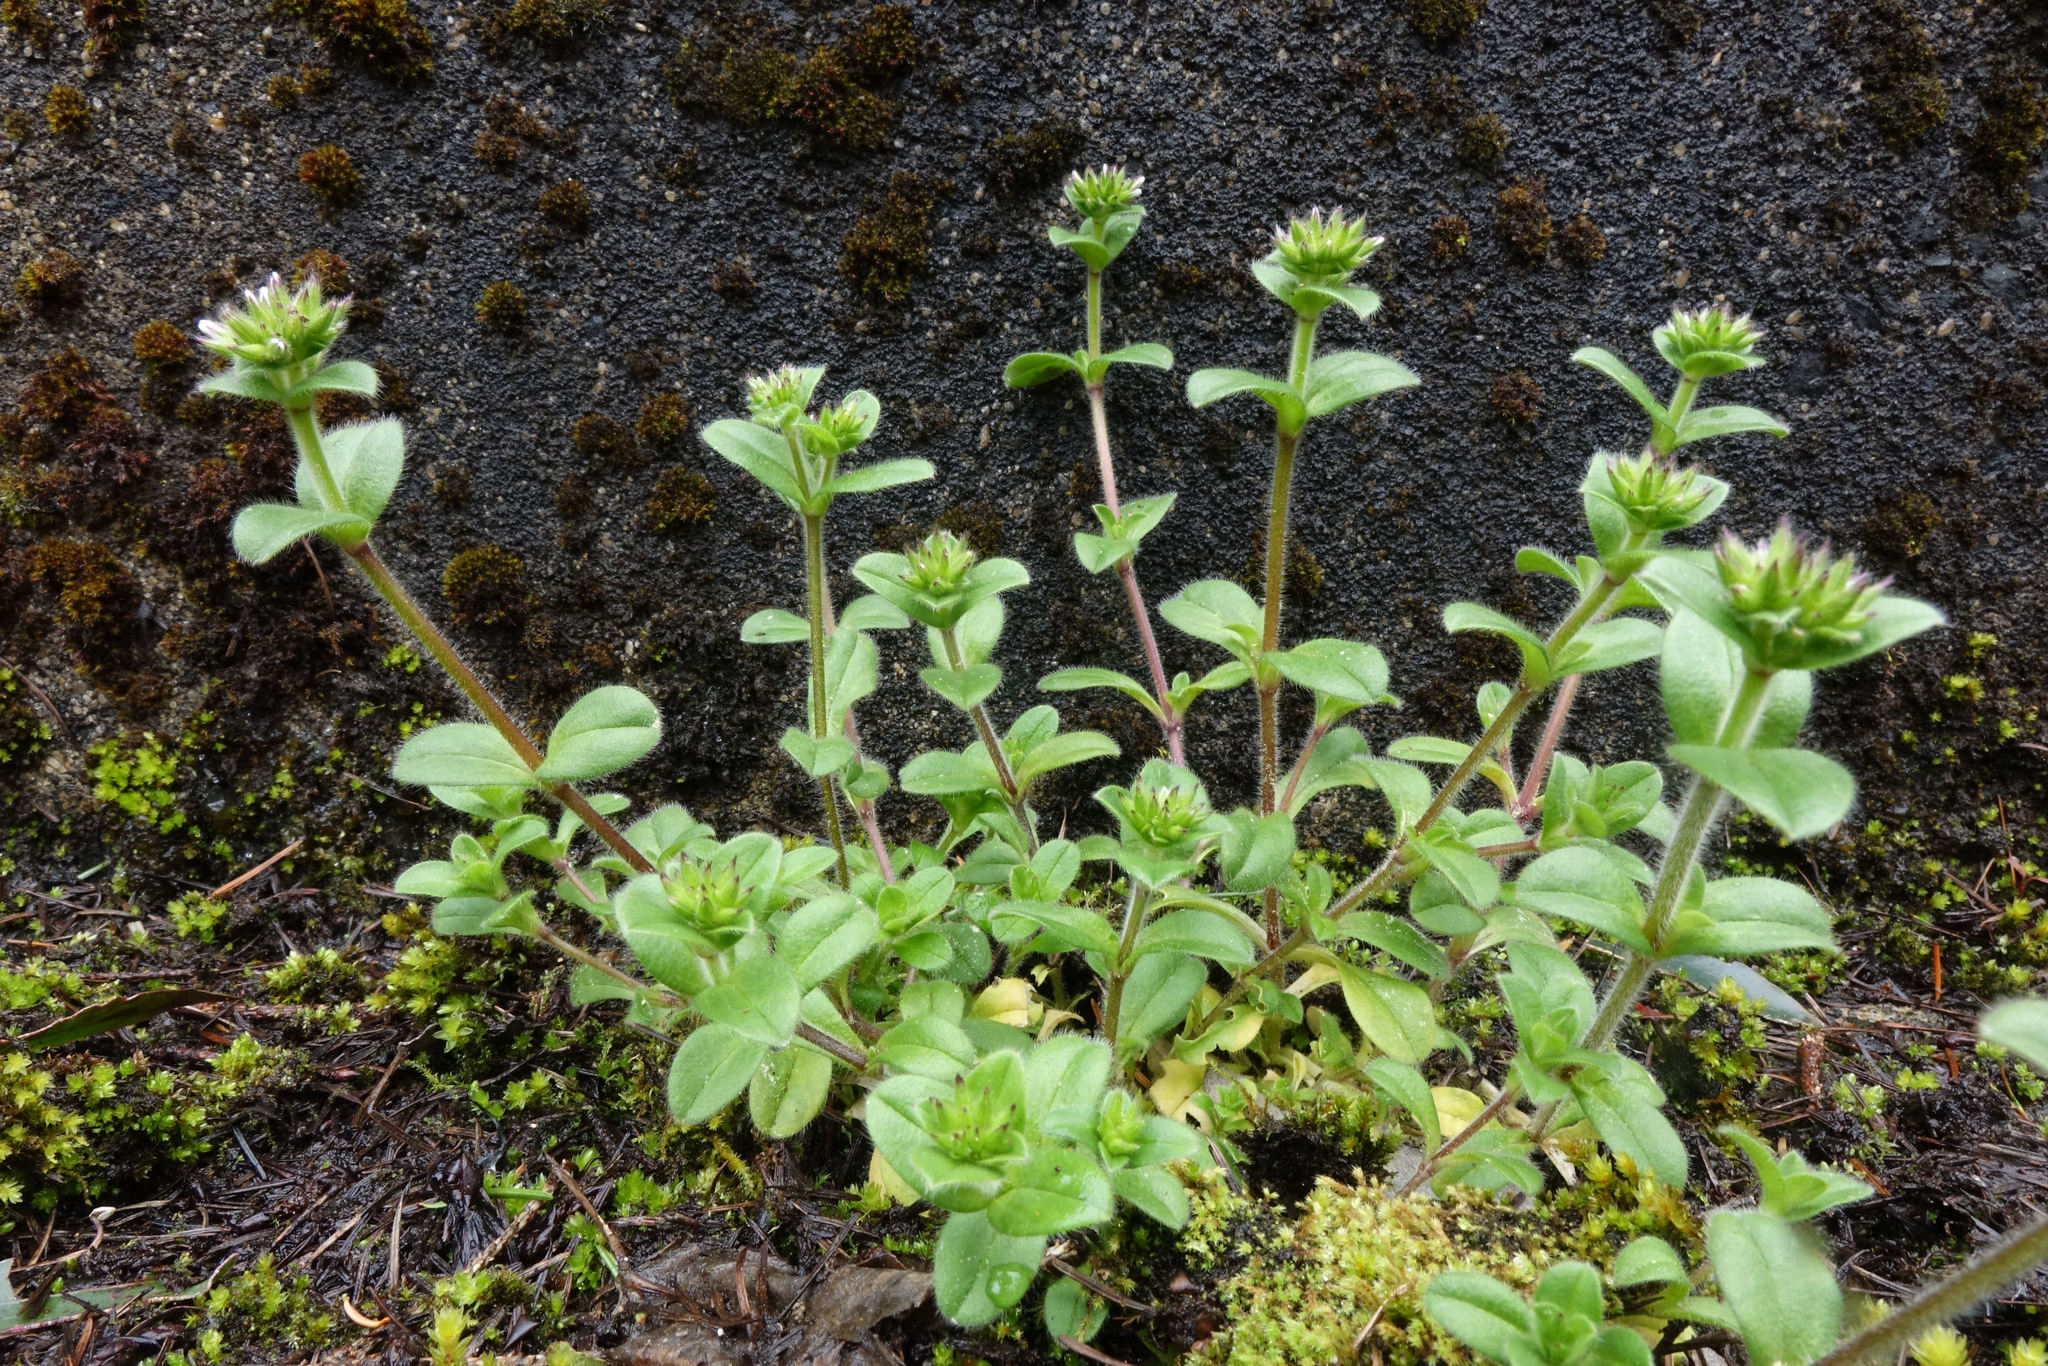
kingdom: Plantae
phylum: Tracheophyta
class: Magnoliopsida
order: Caryophyllales
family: Caryophyllaceae
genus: Cerastium
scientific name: Cerastium glomeratum
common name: Sticky chickweed
